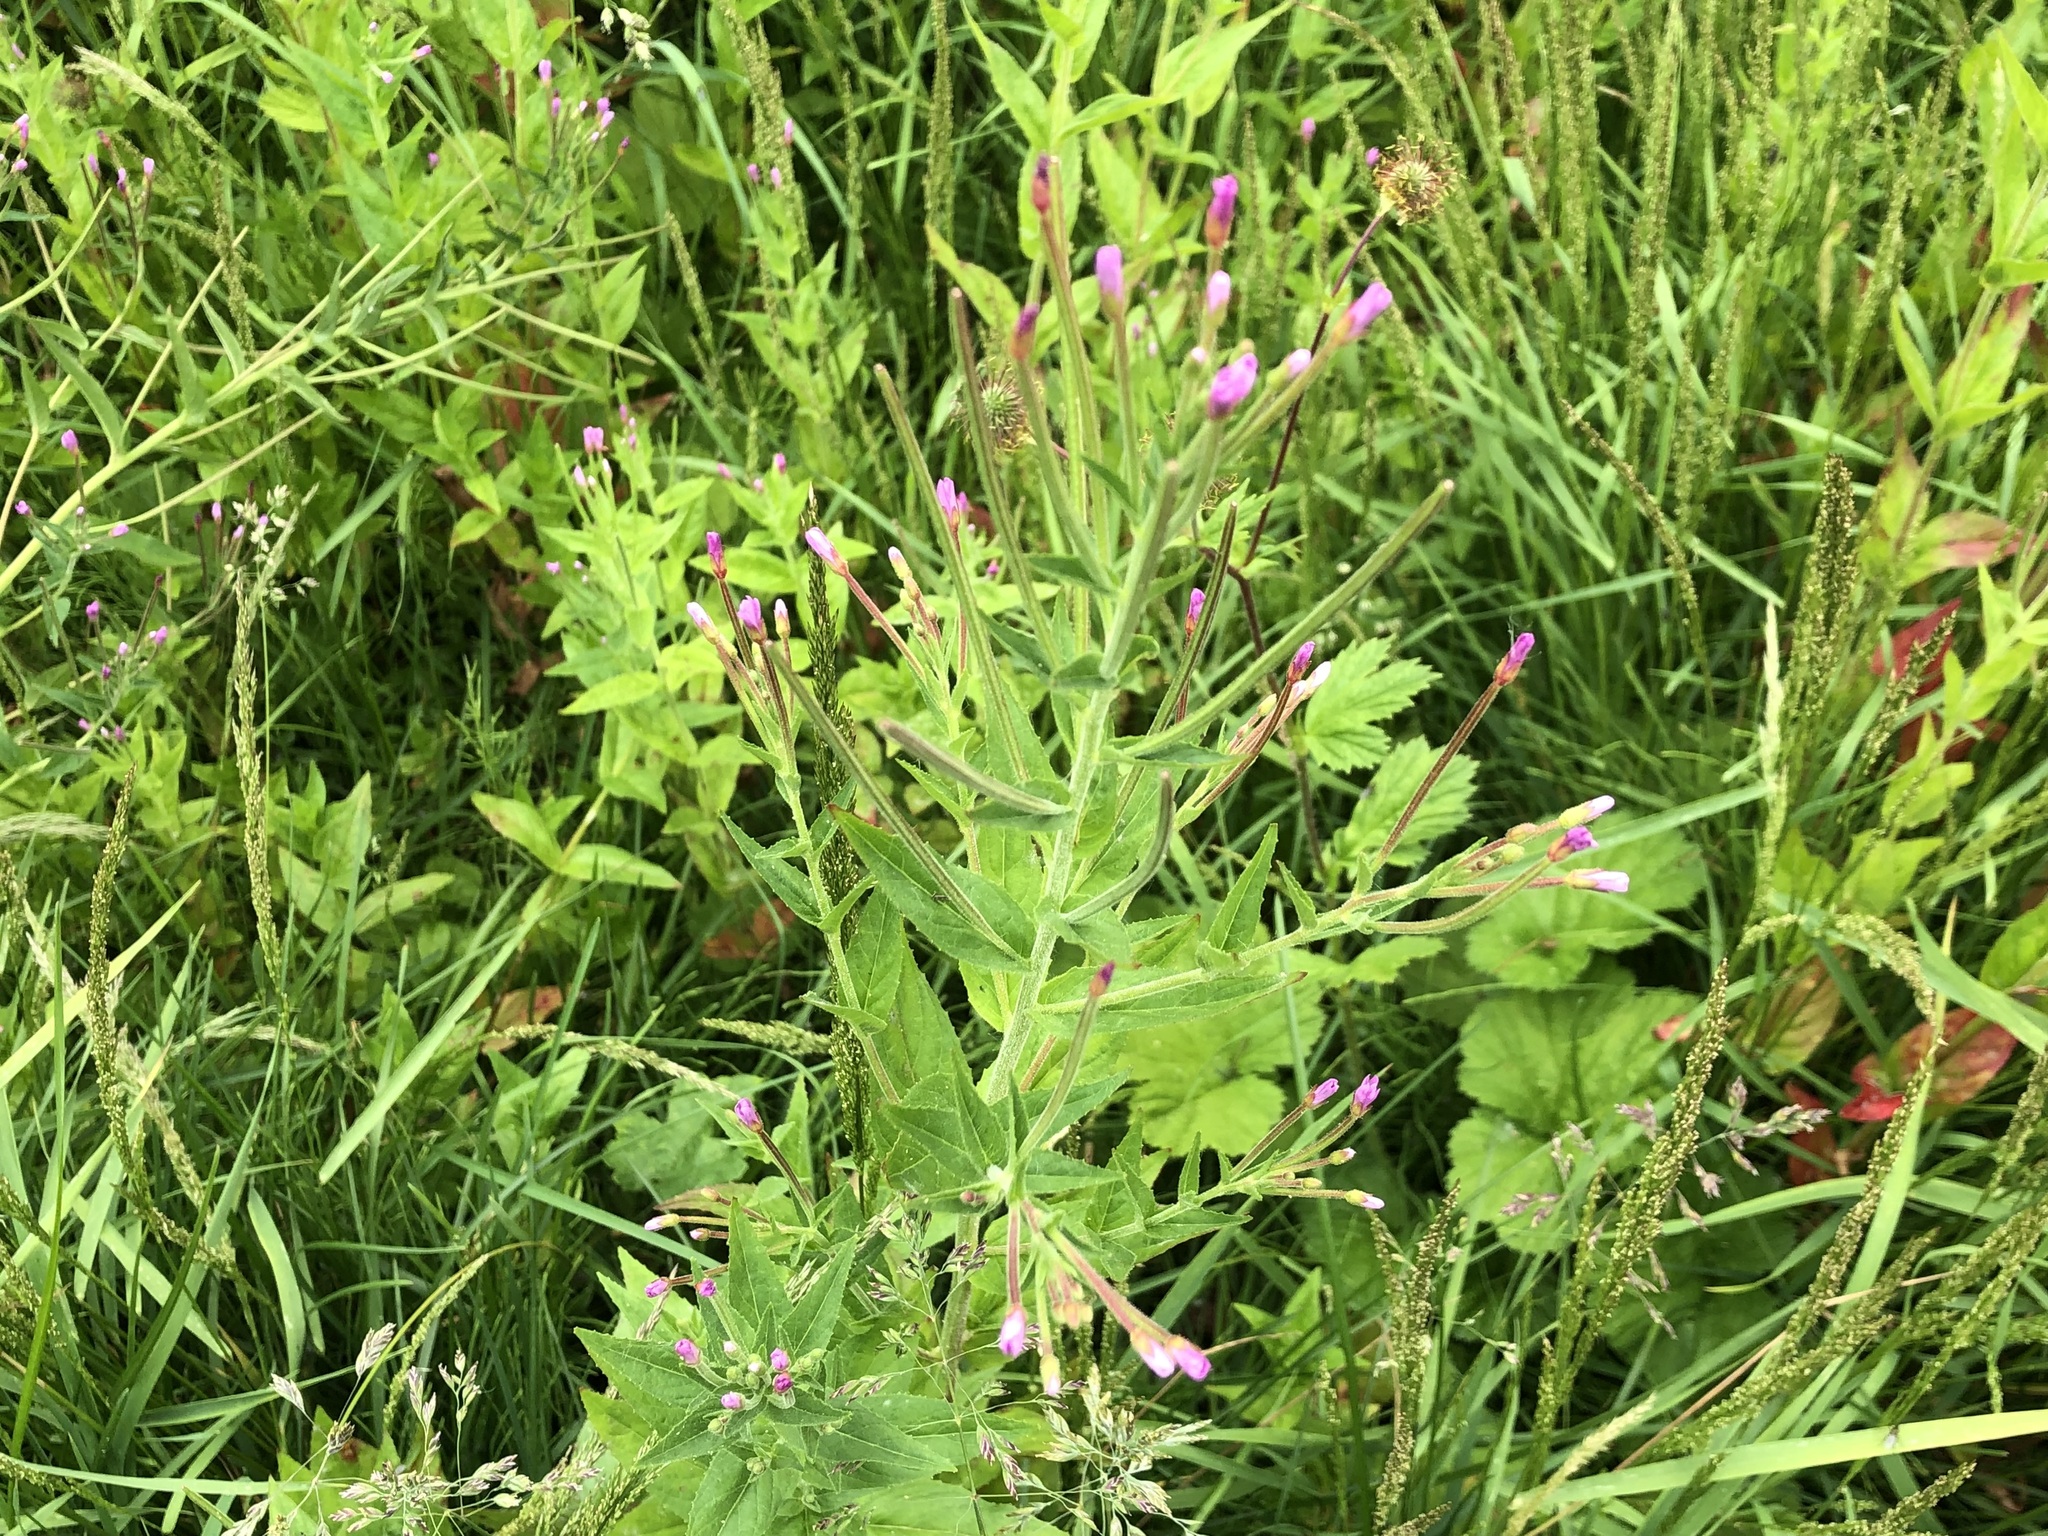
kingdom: Plantae
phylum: Tracheophyta
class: Magnoliopsida
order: Myrtales
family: Onagraceae
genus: Epilobium
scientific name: Epilobium ciliatum
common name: American willowherb
